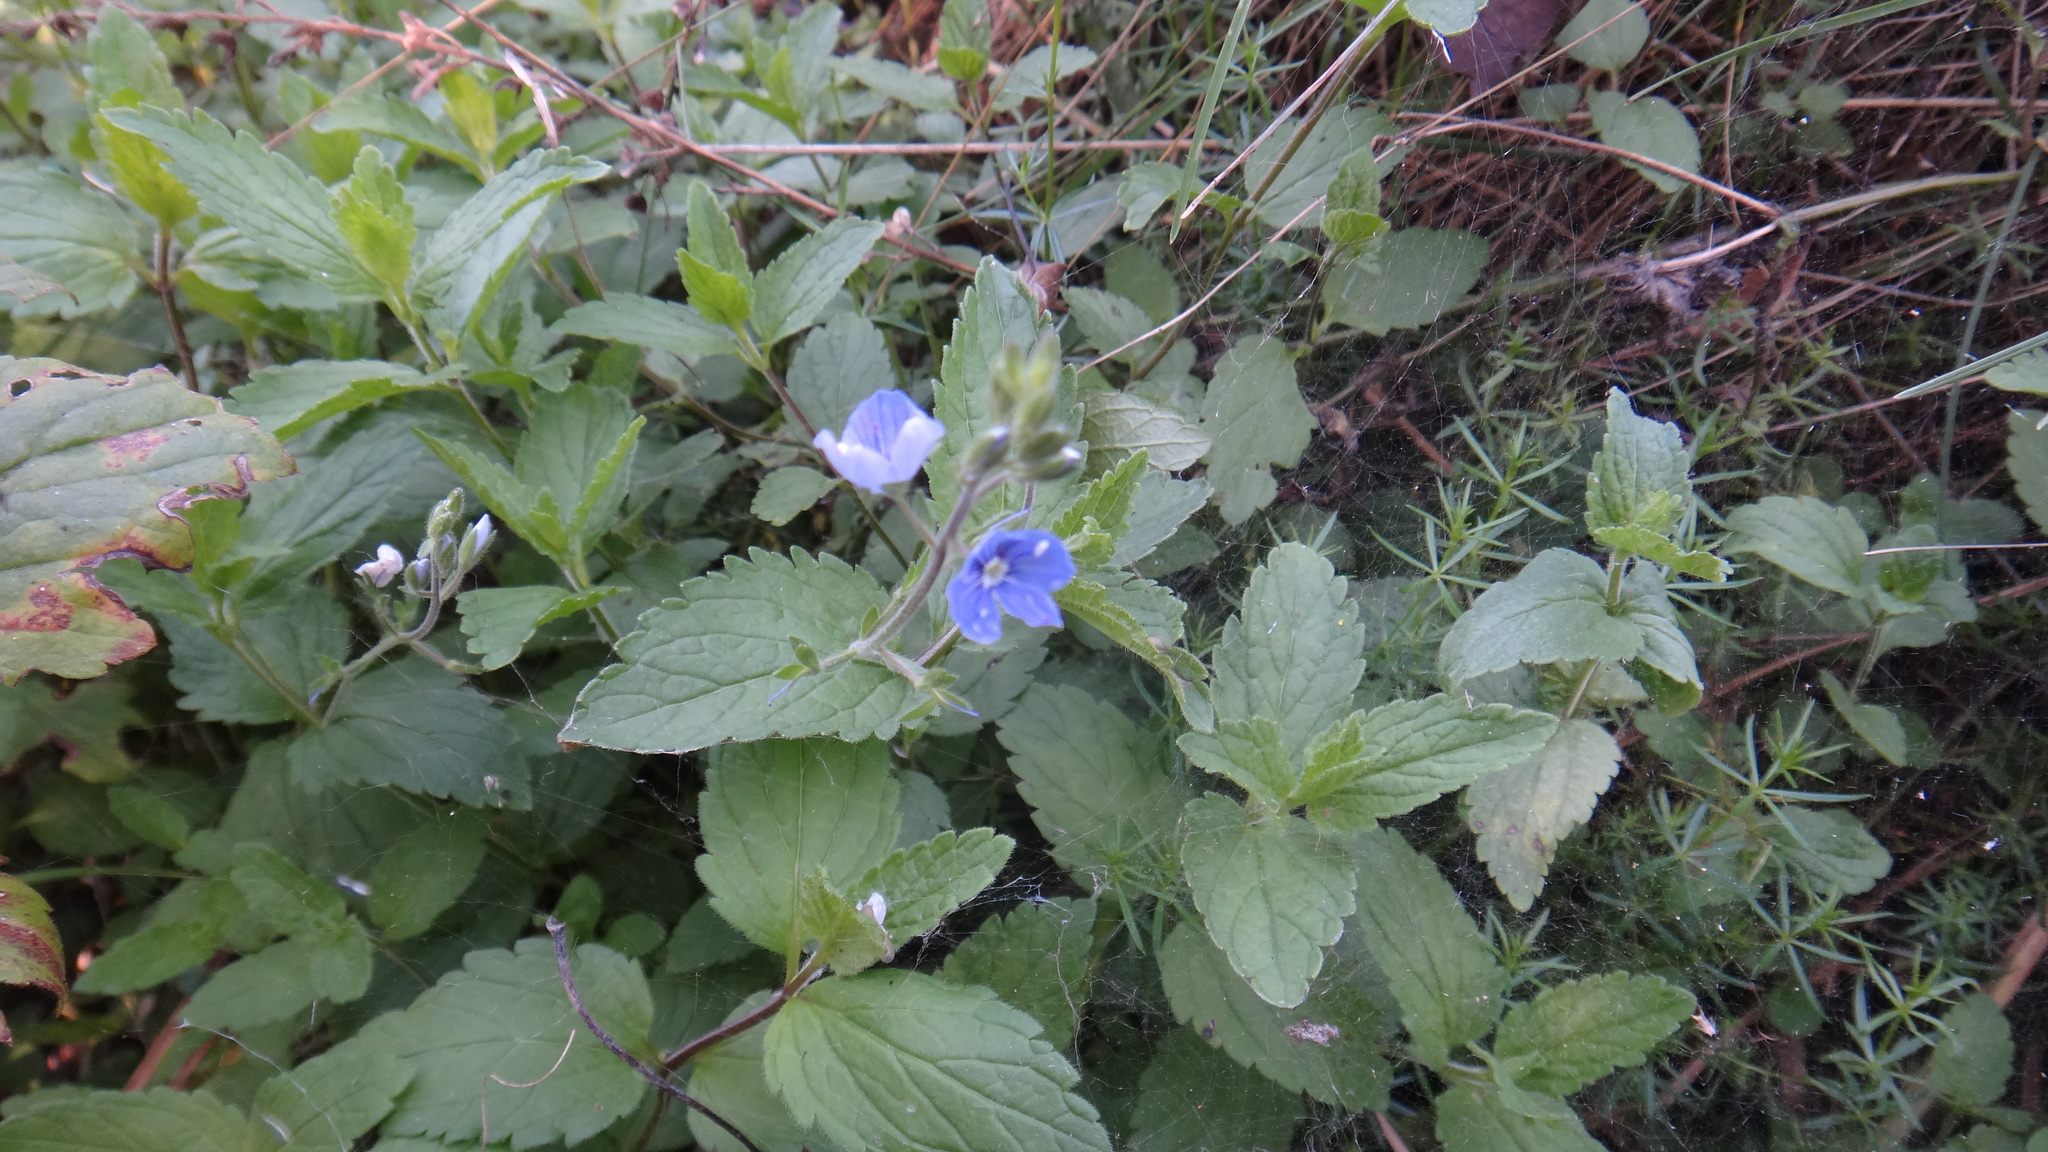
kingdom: Plantae
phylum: Tracheophyta
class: Magnoliopsida
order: Lamiales
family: Plantaginaceae
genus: Veronica
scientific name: Veronica chamaedrys
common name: Germander speedwell
